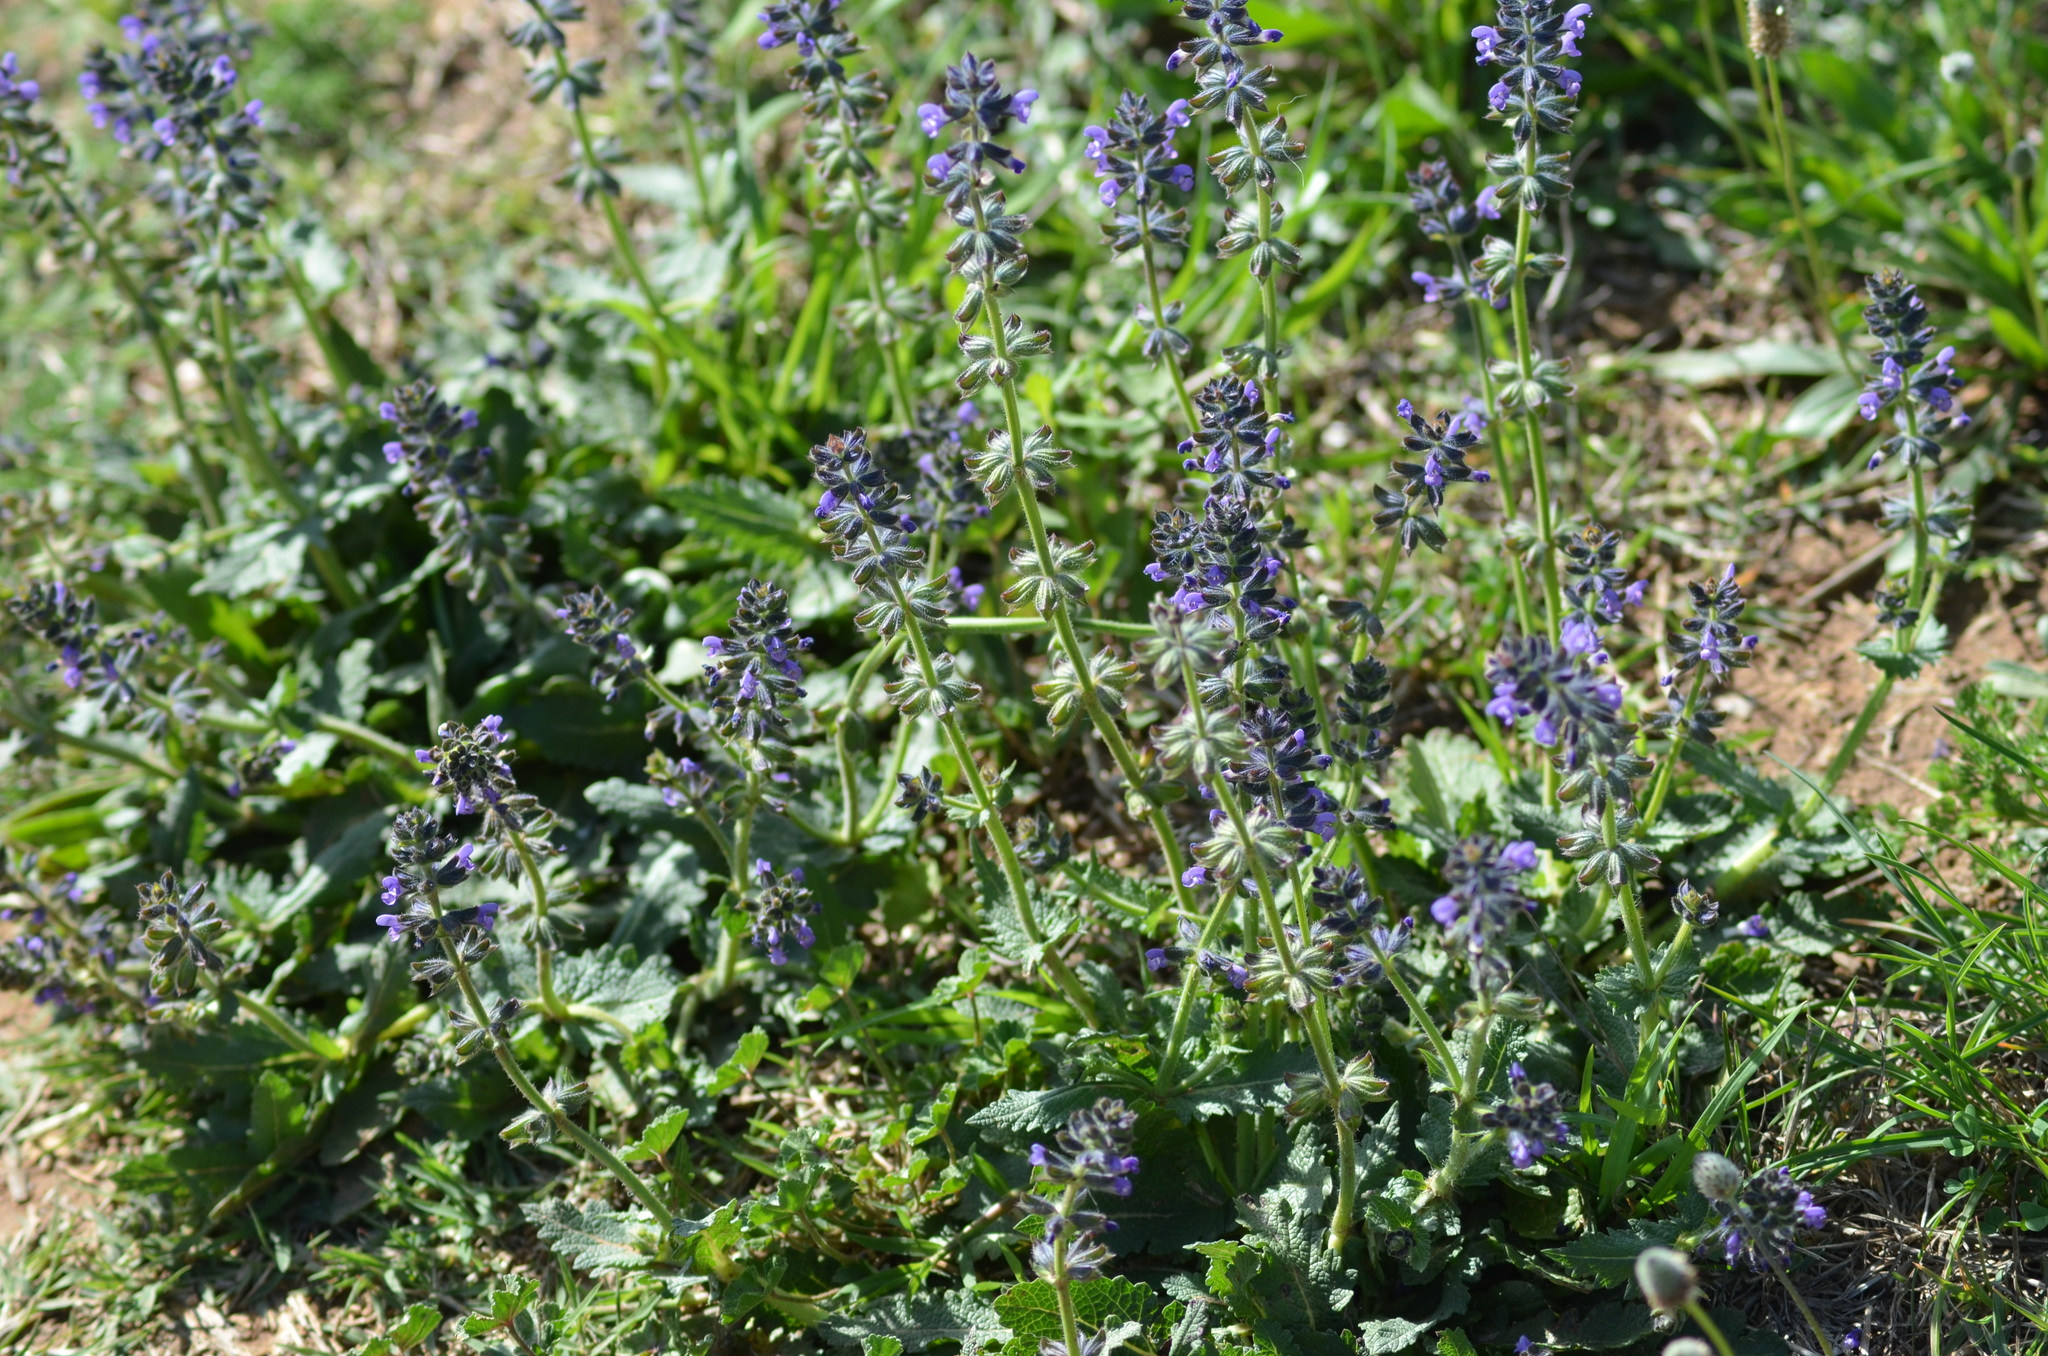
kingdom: Plantae
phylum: Tracheophyta
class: Magnoliopsida
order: Lamiales
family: Lamiaceae
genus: Salvia
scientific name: Salvia verbenaca
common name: Wild clary
